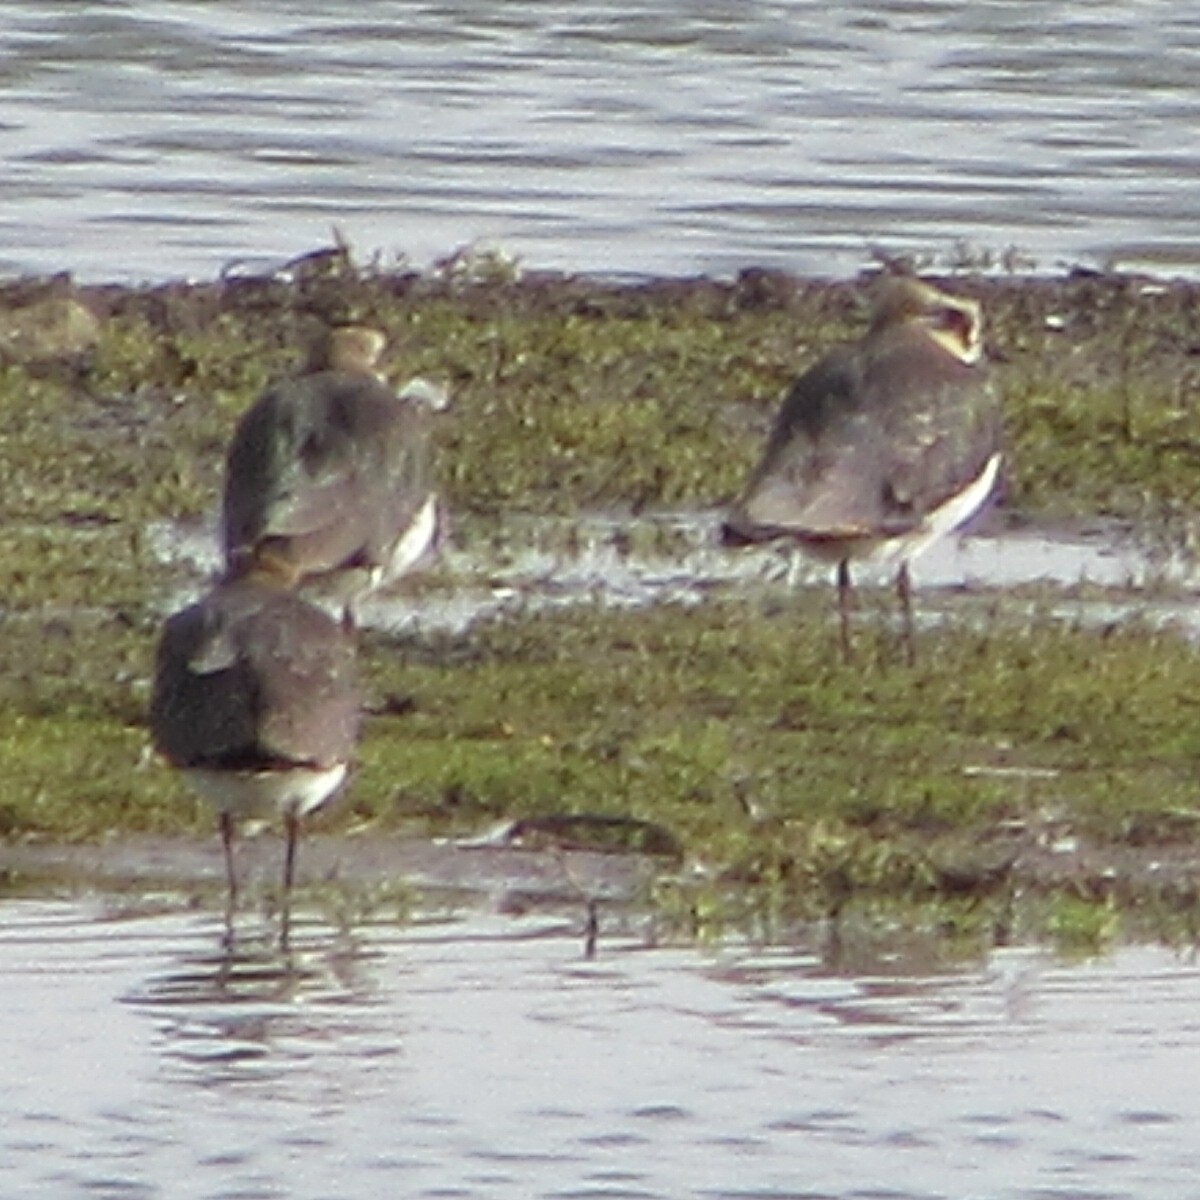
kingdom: Animalia
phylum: Chordata
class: Aves
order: Charadriiformes
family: Charadriidae
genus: Vanellus
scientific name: Vanellus vanellus
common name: Northern lapwing
